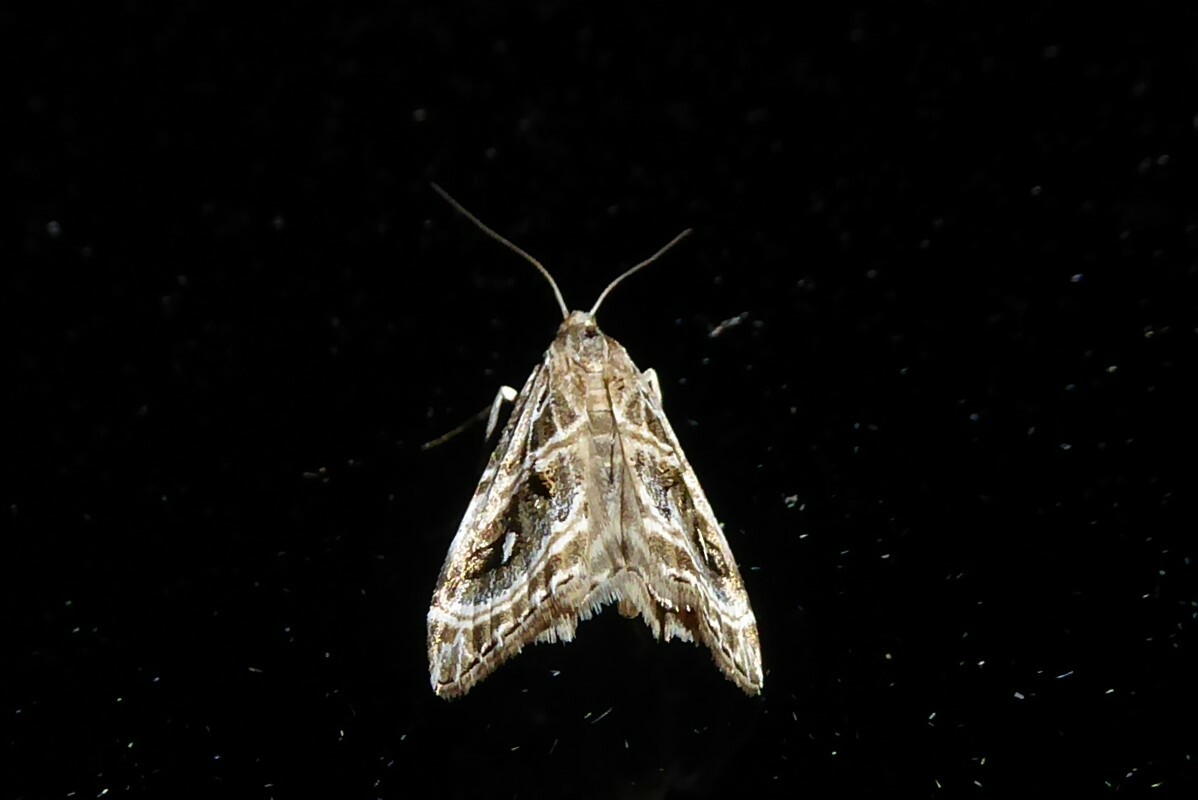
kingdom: Animalia
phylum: Arthropoda
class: Insecta
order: Lepidoptera
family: Crambidae
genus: Gadira
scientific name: Gadira acerella
